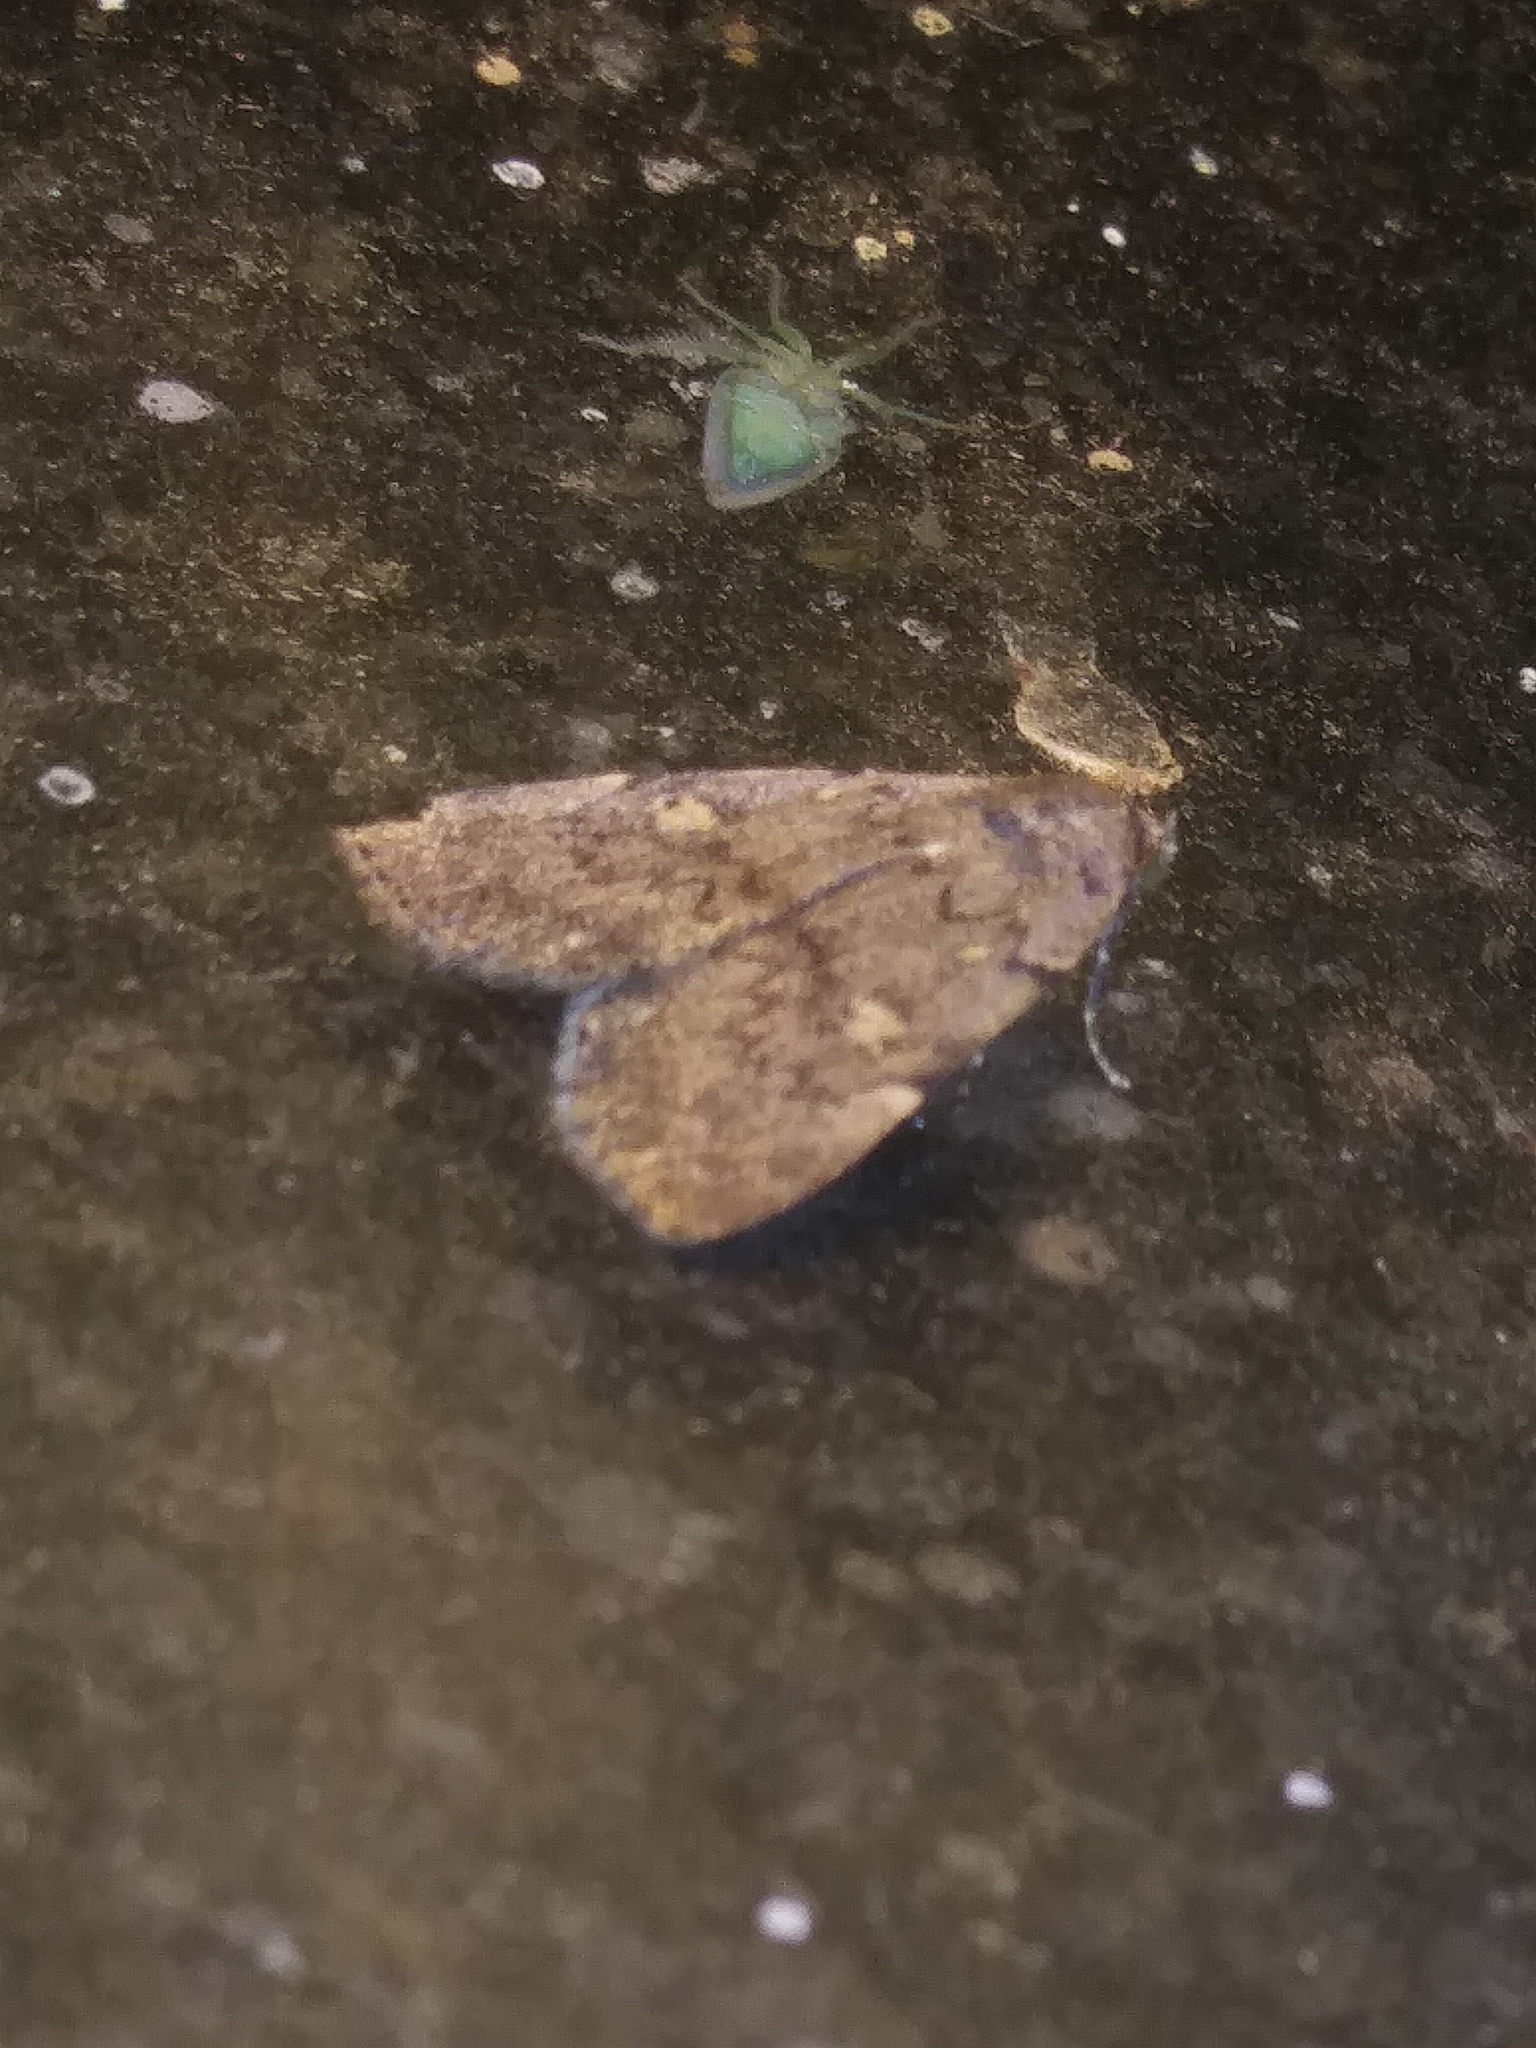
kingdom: Animalia
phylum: Arthropoda
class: Insecta
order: Lepidoptera
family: Erebidae
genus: Idia
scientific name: Idia aemula
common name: Common idia moth
